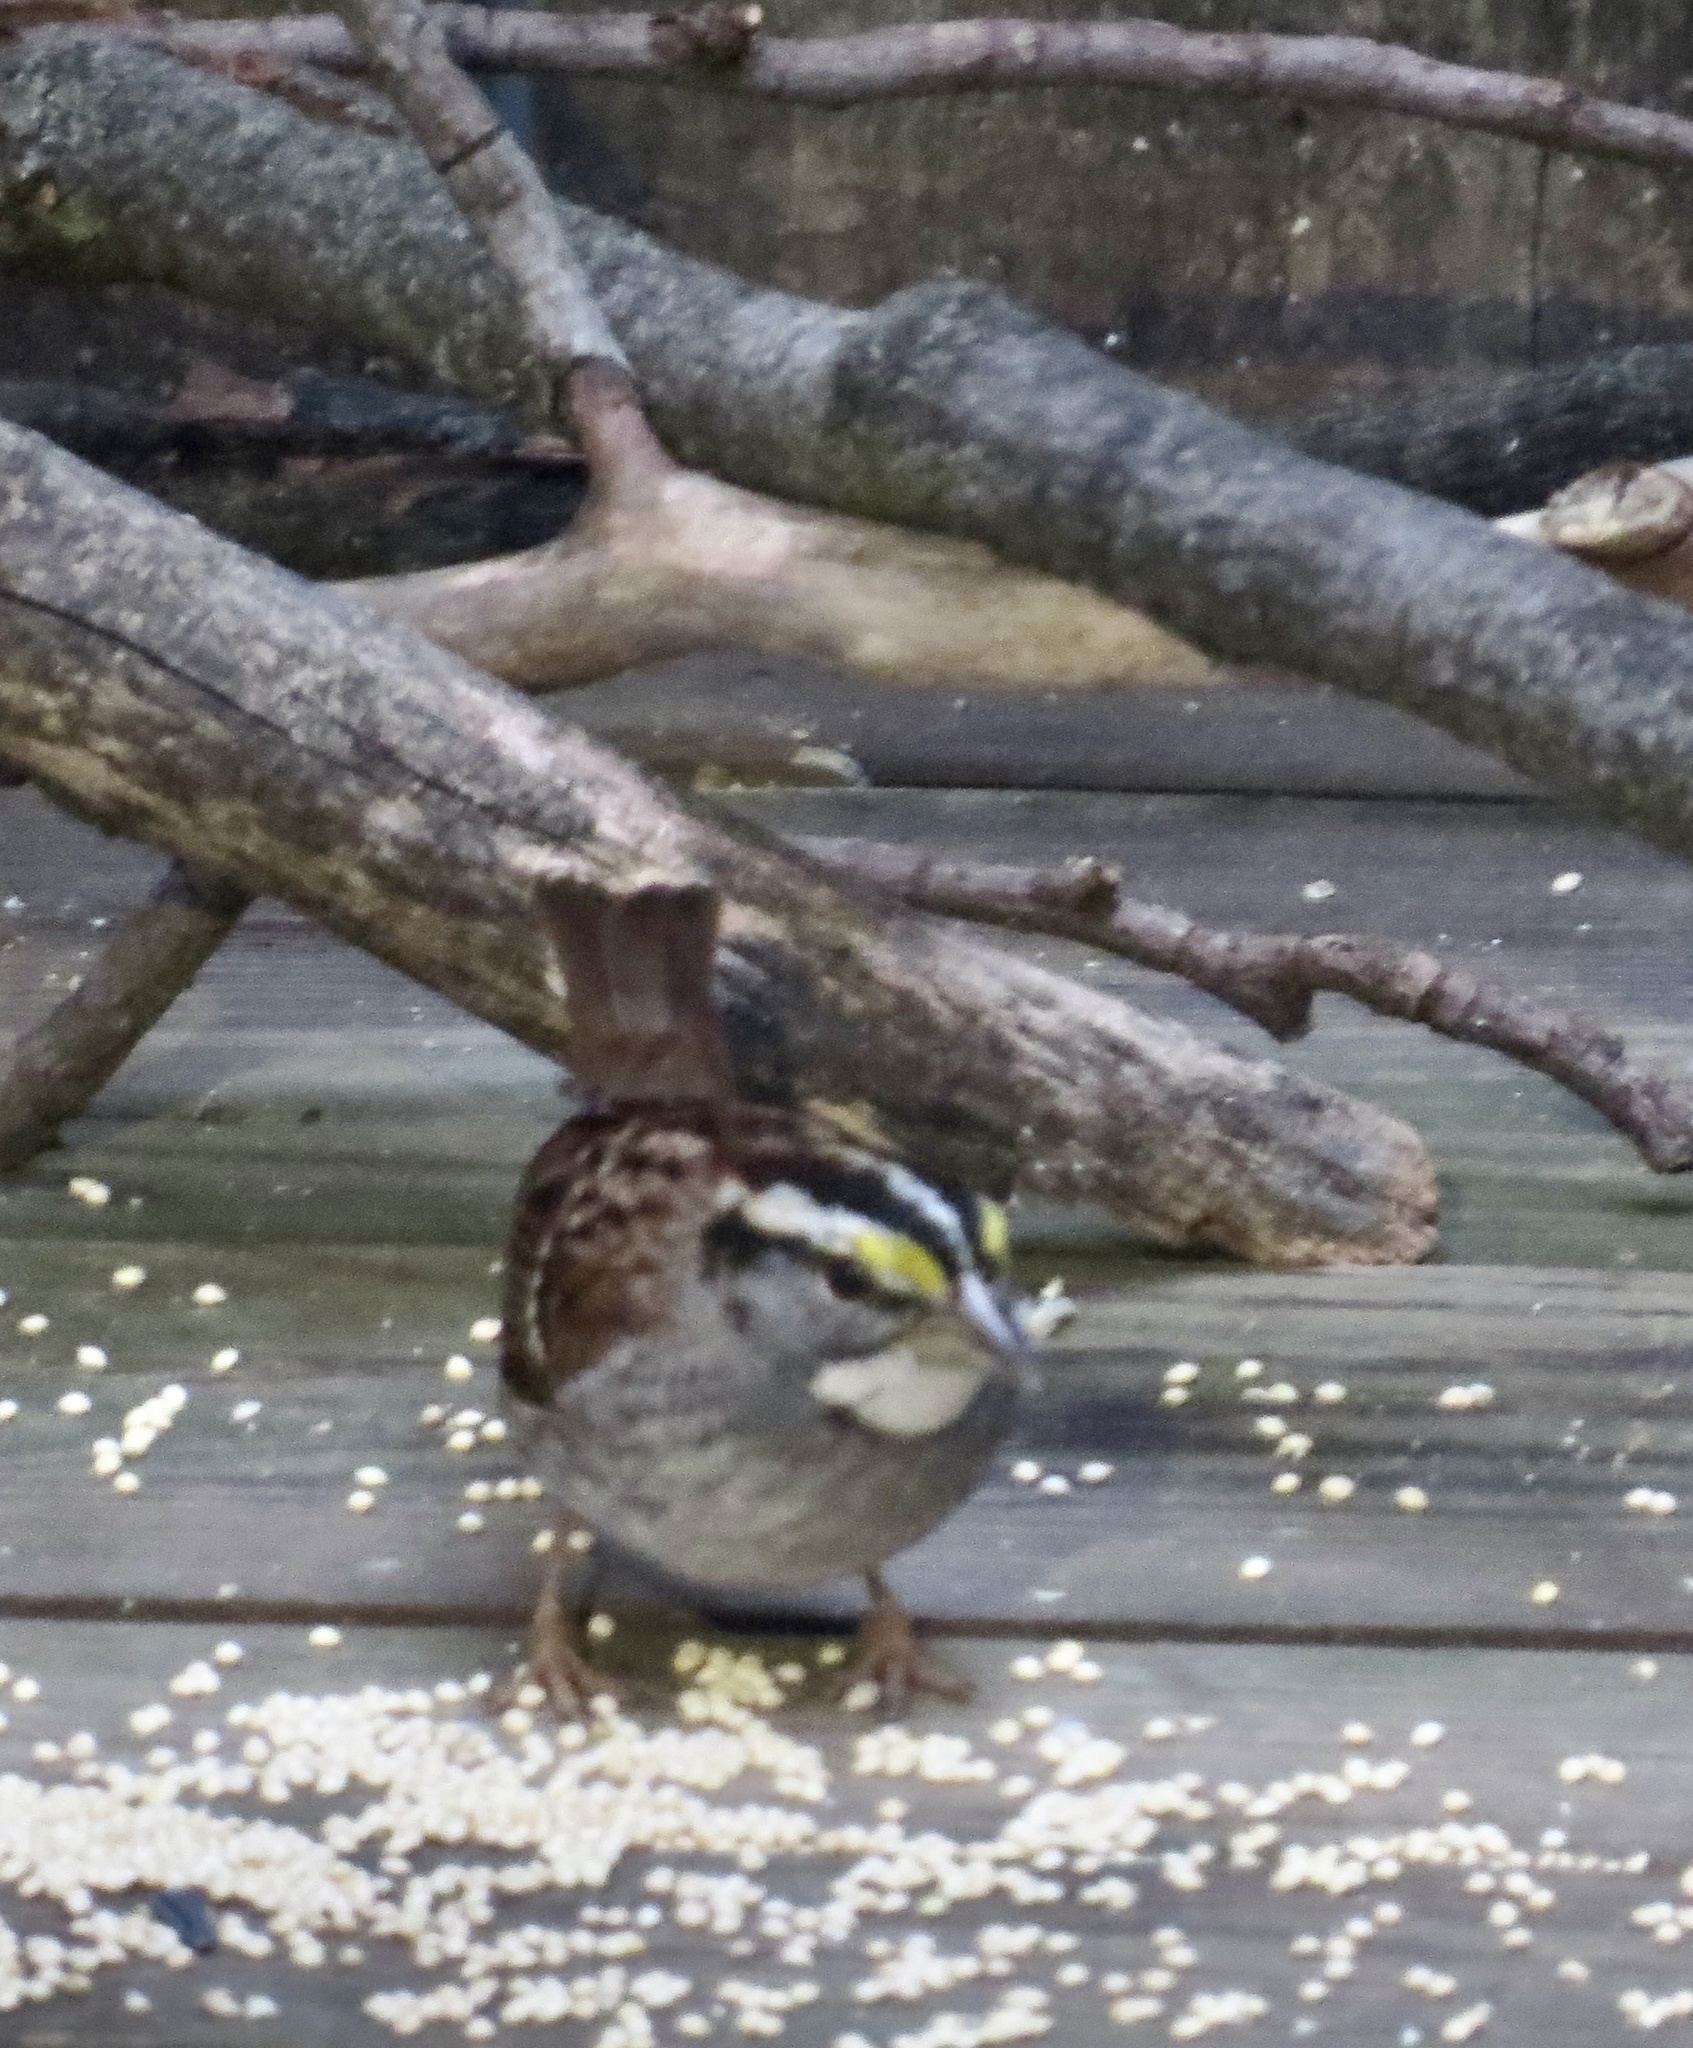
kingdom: Animalia
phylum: Chordata
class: Aves
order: Passeriformes
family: Passerellidae
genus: Zonotrichia
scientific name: Zonotrichia albicollis
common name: White-throated sparrow
